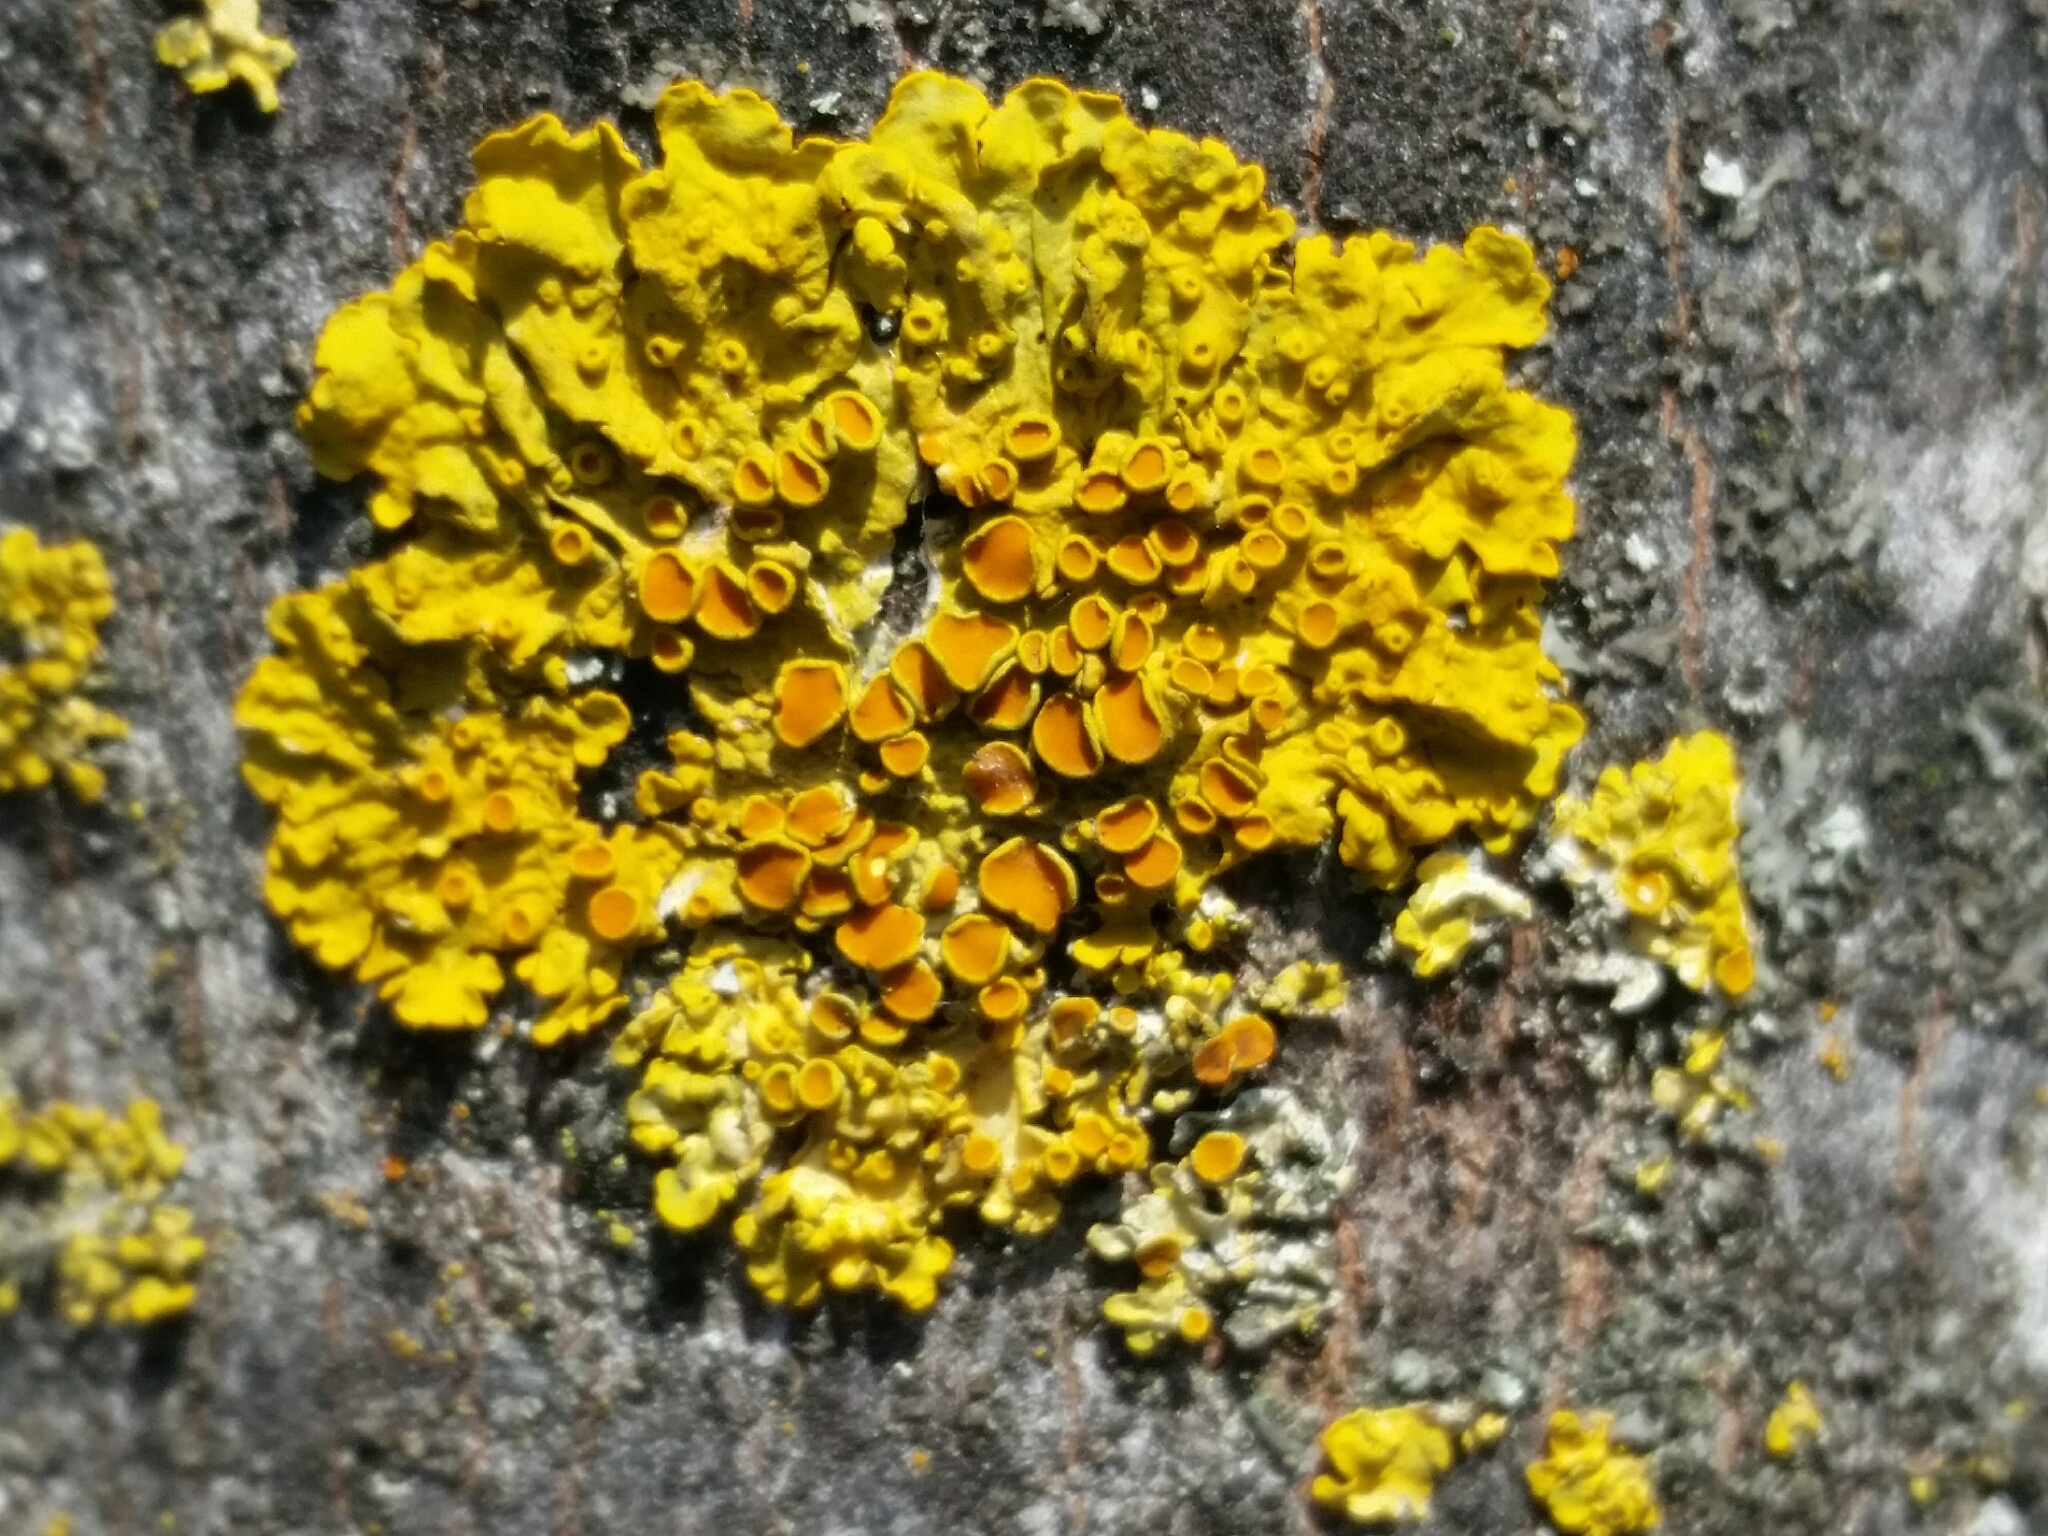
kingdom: Fungi
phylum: Ascomycota
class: Lecanoromycetes
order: Teloschistales
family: Teloschistaceae
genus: Xanthoria
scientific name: Xanthoria parietina
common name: Common orange lichen
